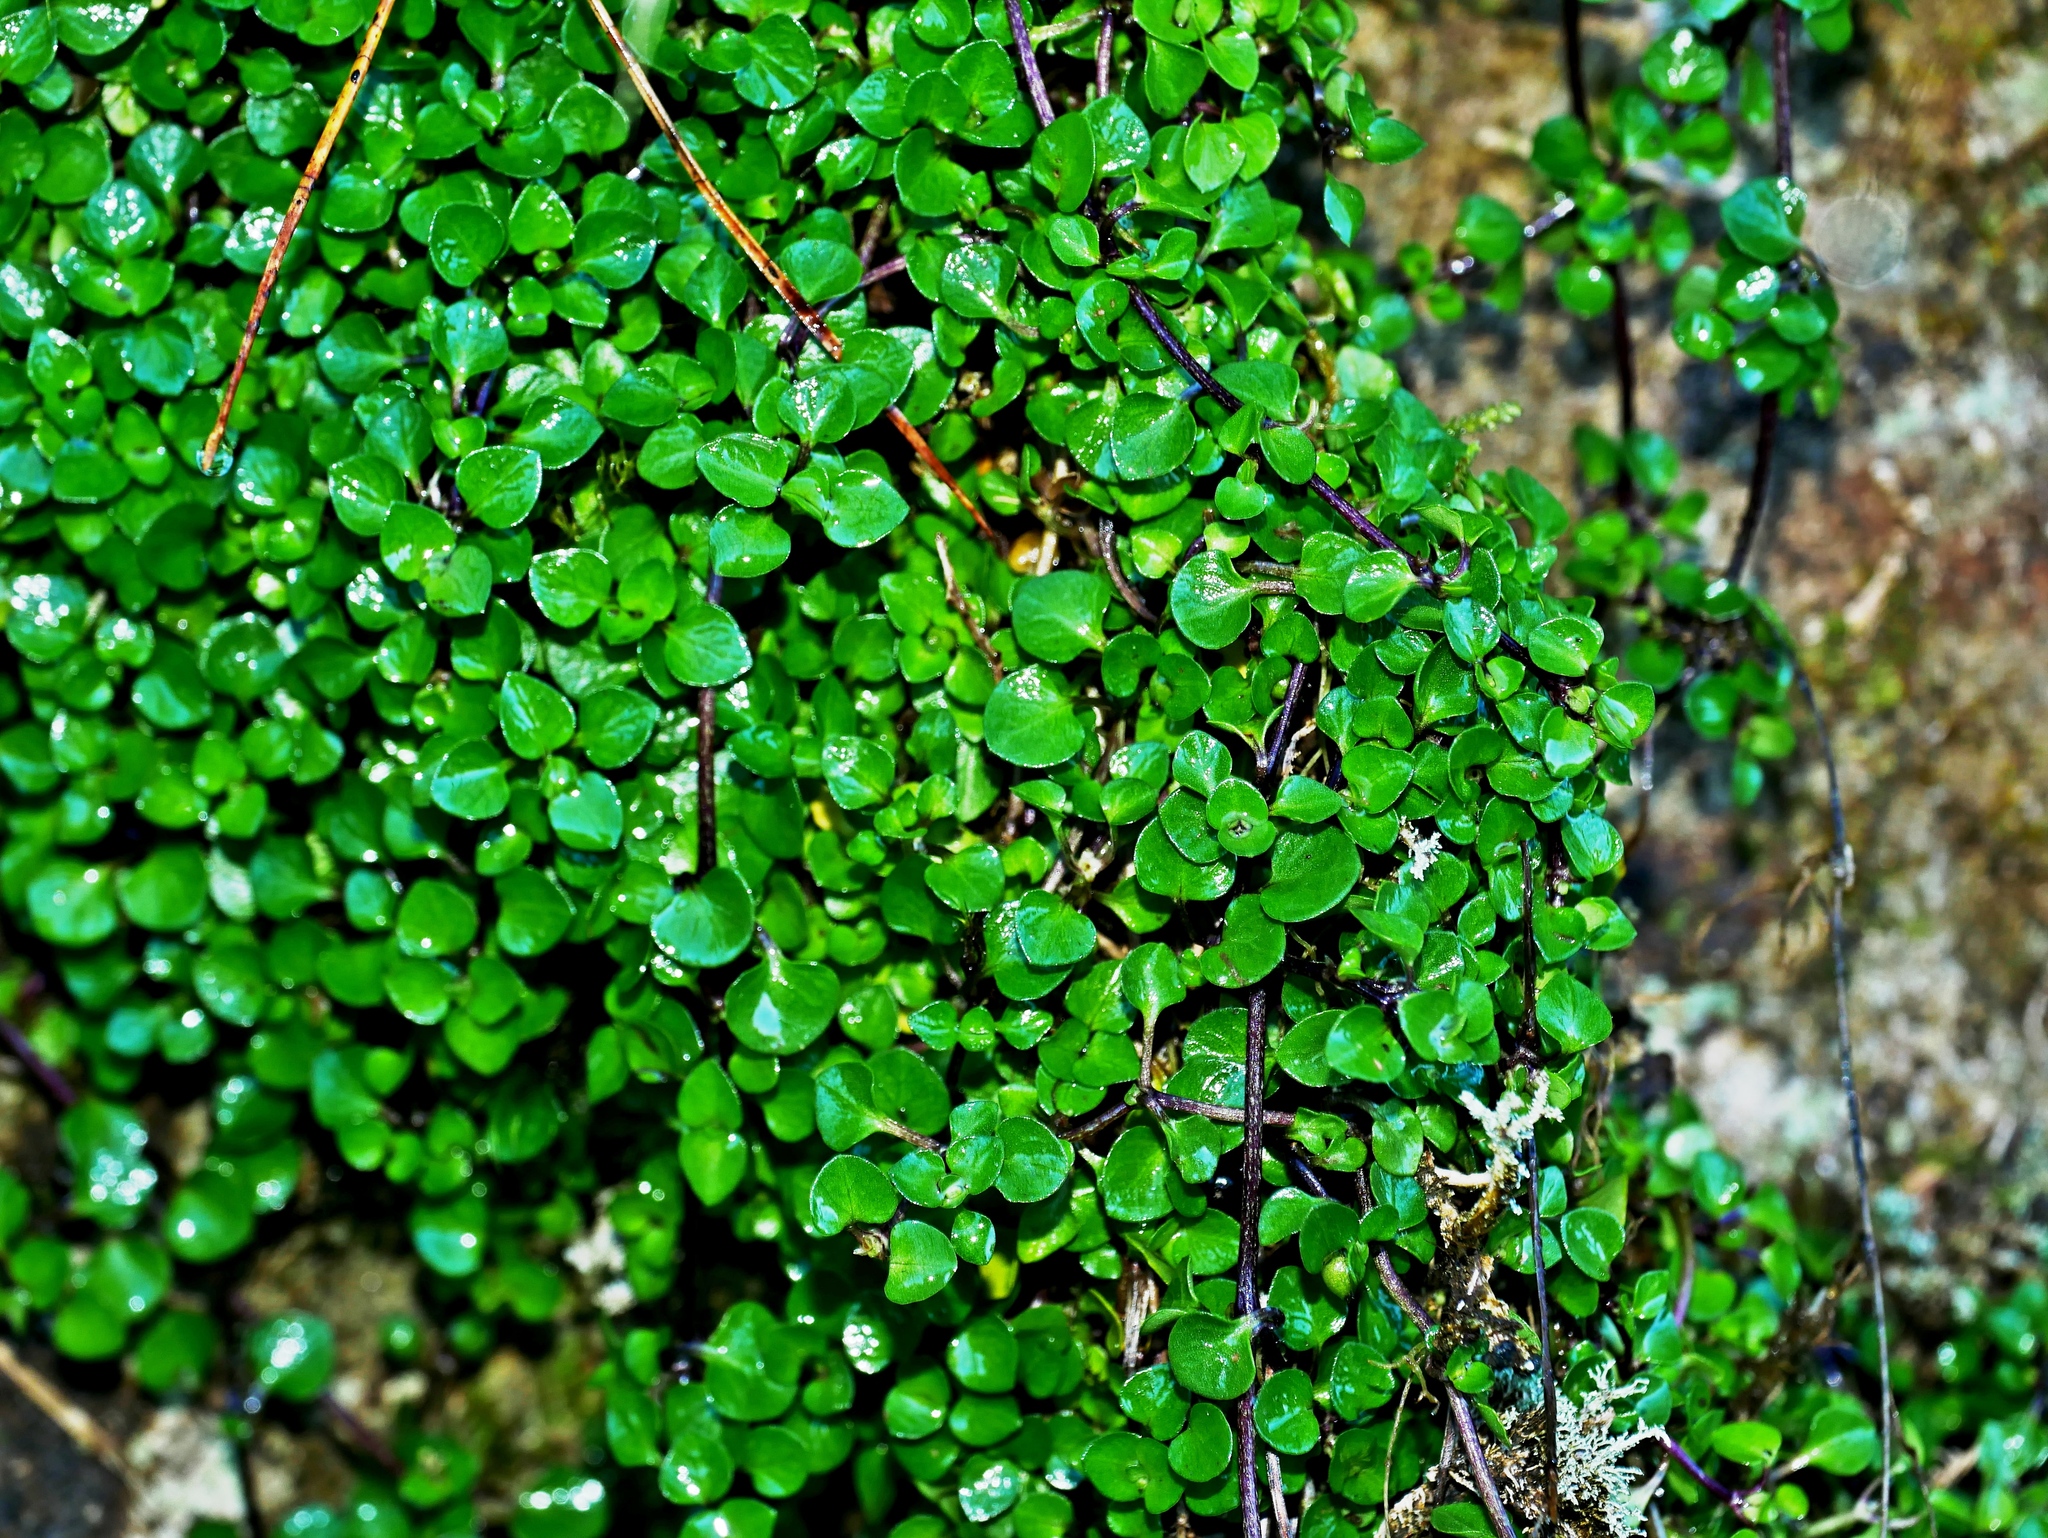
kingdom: Plantae
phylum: Tracheophyta
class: Magnoliopsida
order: Gentianales
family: Rubiaceae
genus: Nertera
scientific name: Nertera nigricarpa
